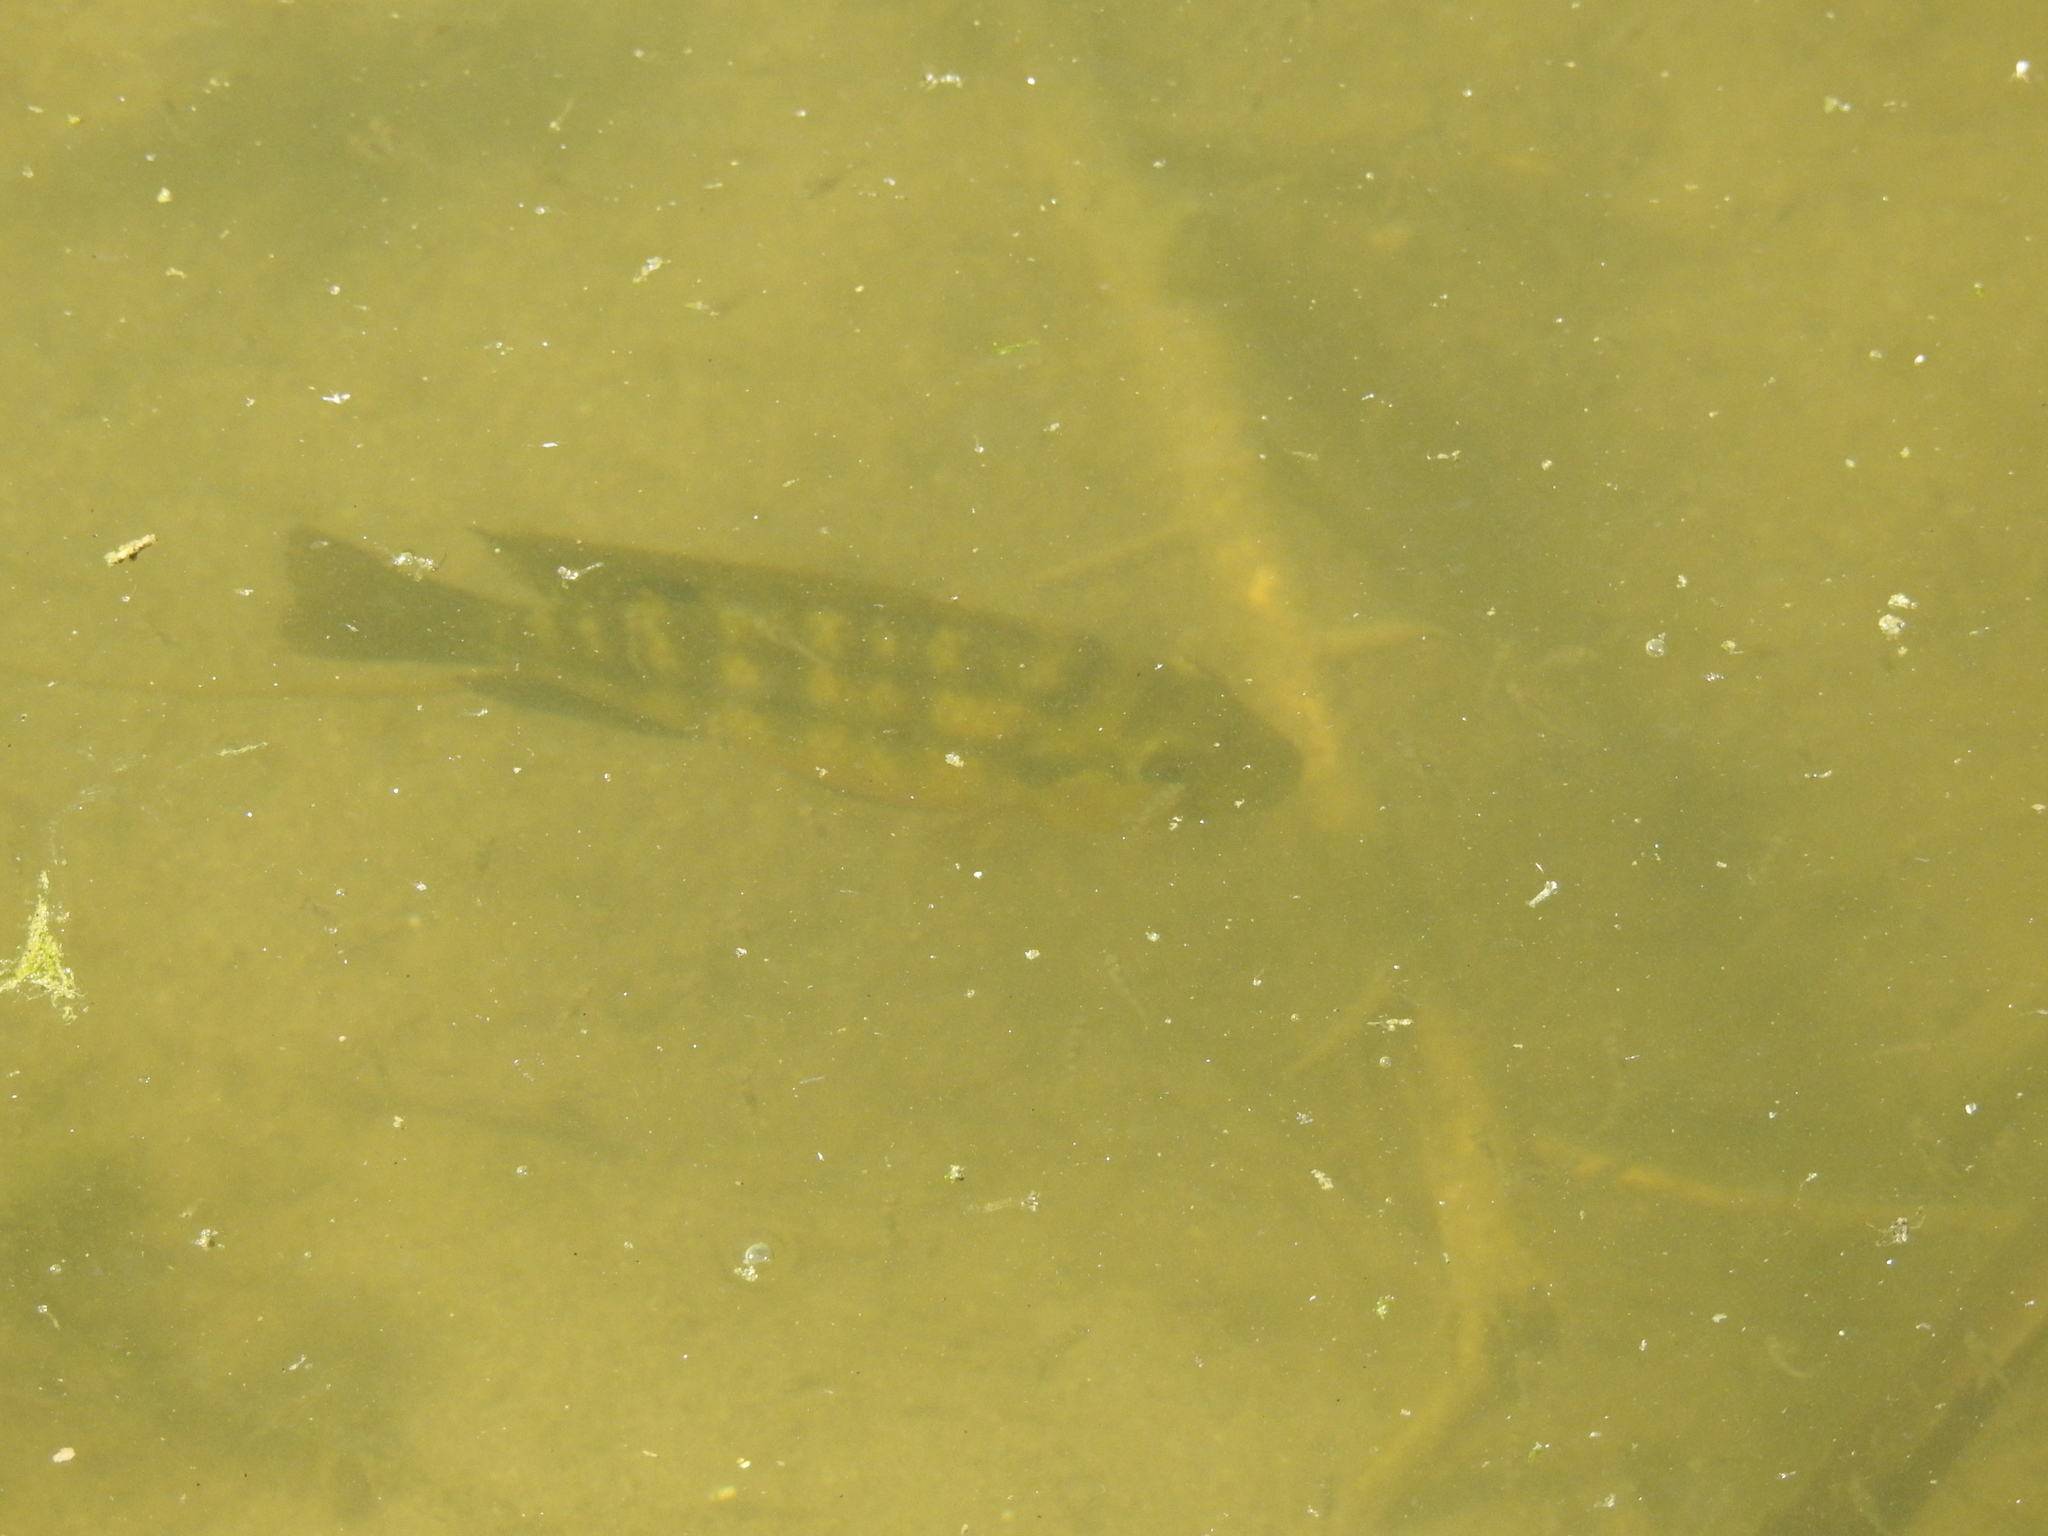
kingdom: Animalia
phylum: Chordata
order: Perciformes
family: Cichlidae
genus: Coptodon
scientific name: Coptodon zillii
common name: Redbelly tilapia
